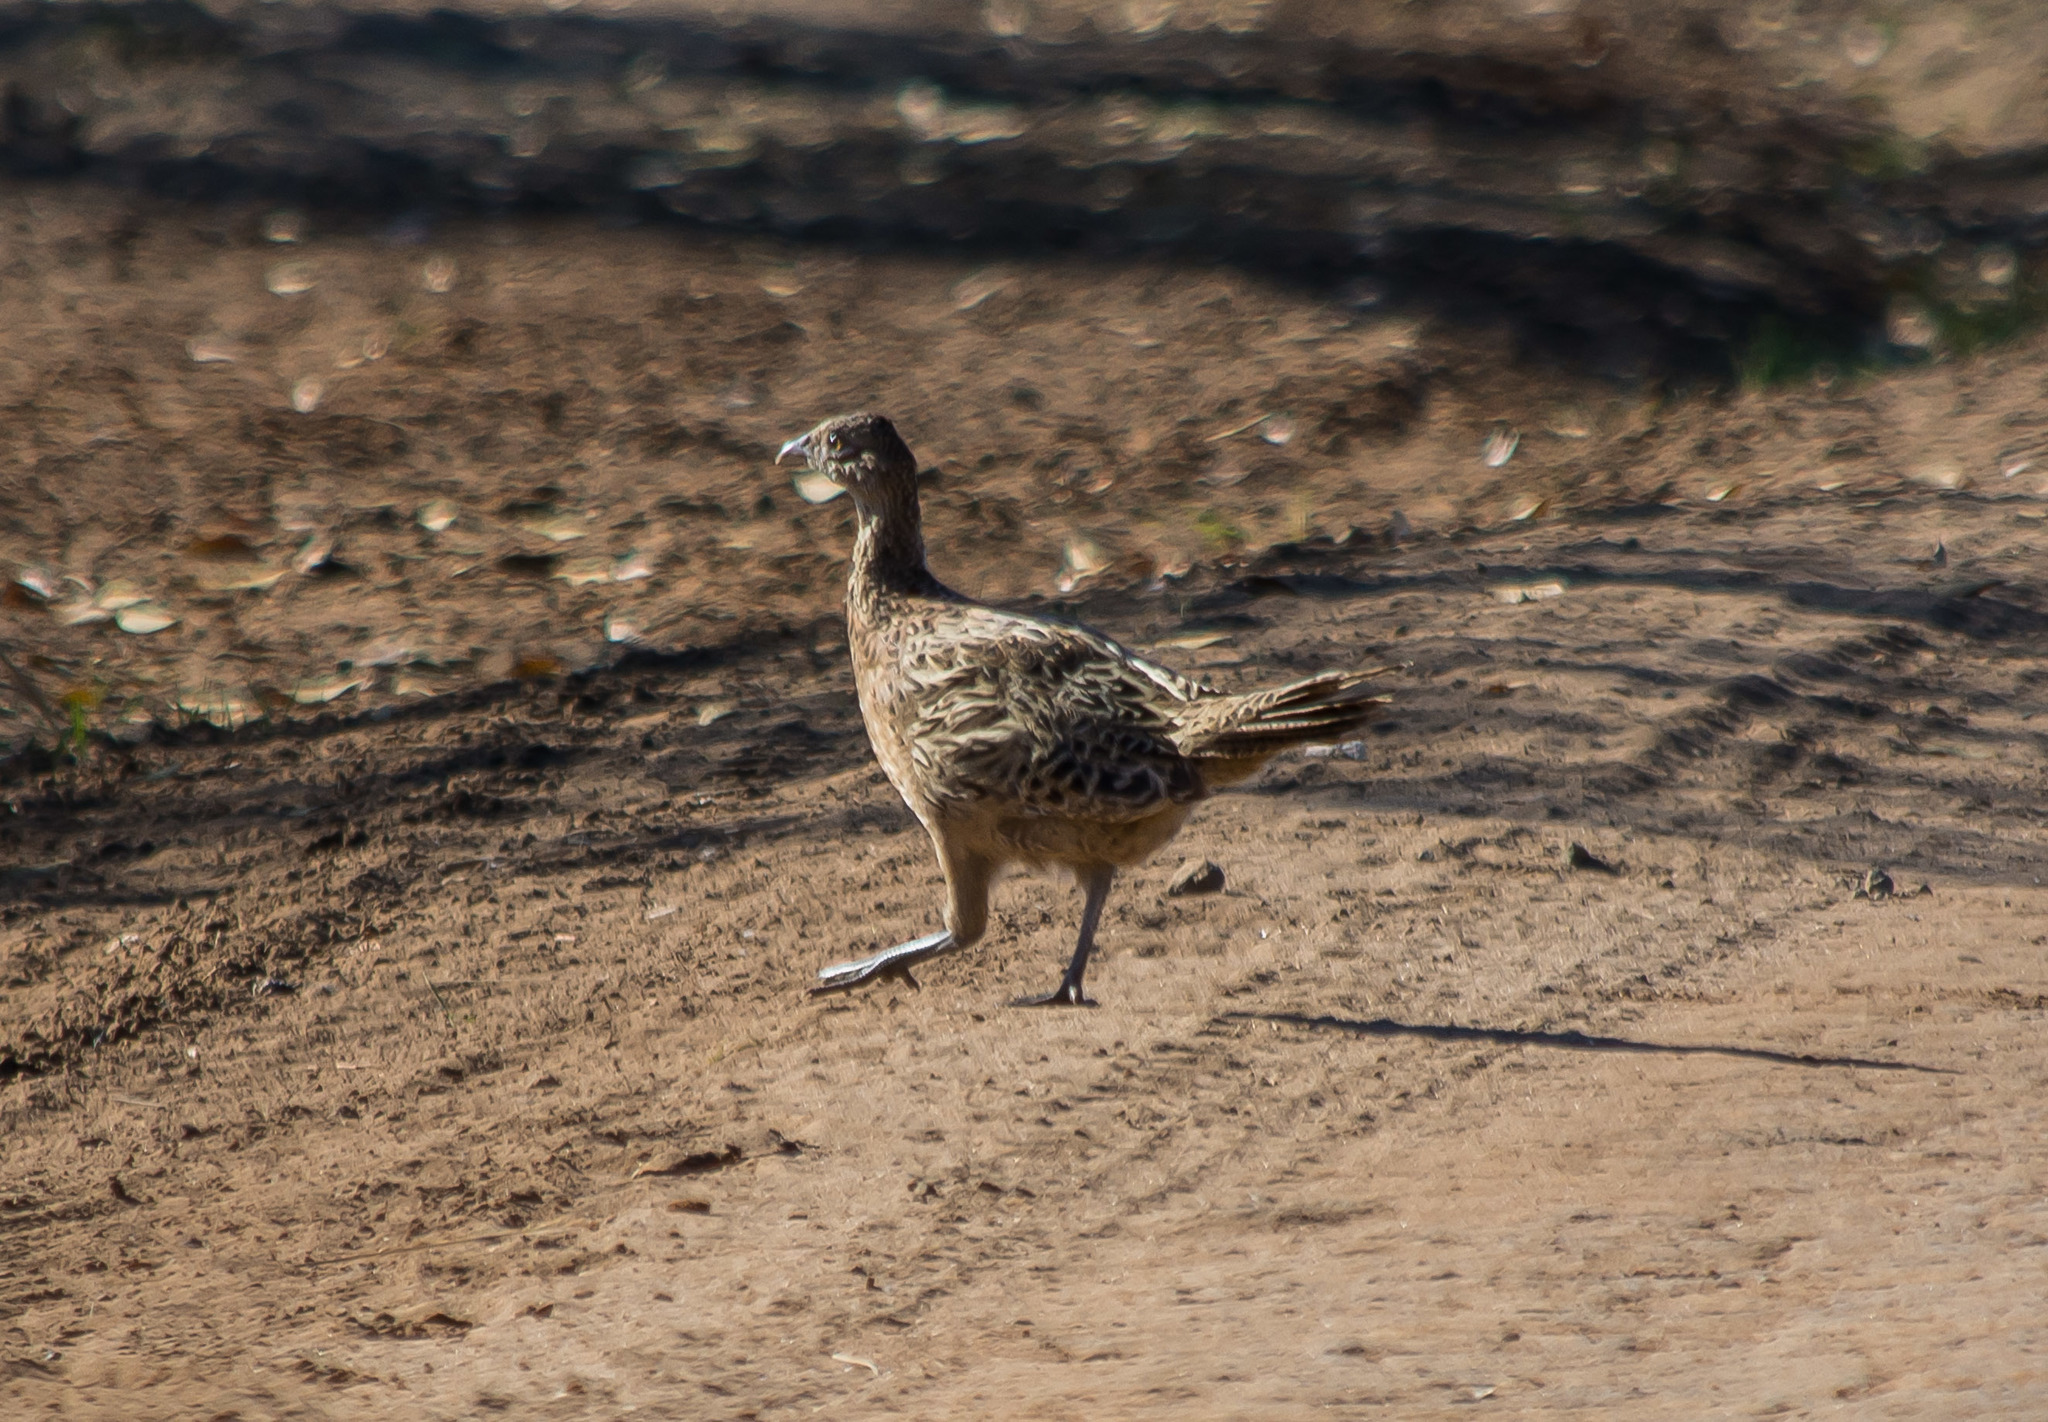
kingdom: Animalia
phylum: Chordata
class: Aves
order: Galliformes
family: Phasianidae
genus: Phasianus
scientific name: Phasianus colchicus
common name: Common pheasant
